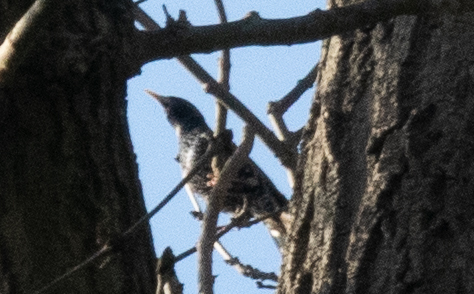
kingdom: Animalia
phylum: Chordata
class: Aves
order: Passeriformes
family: Sturnidae
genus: Sturnus
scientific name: Sturnus vulgaris
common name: Common starling
